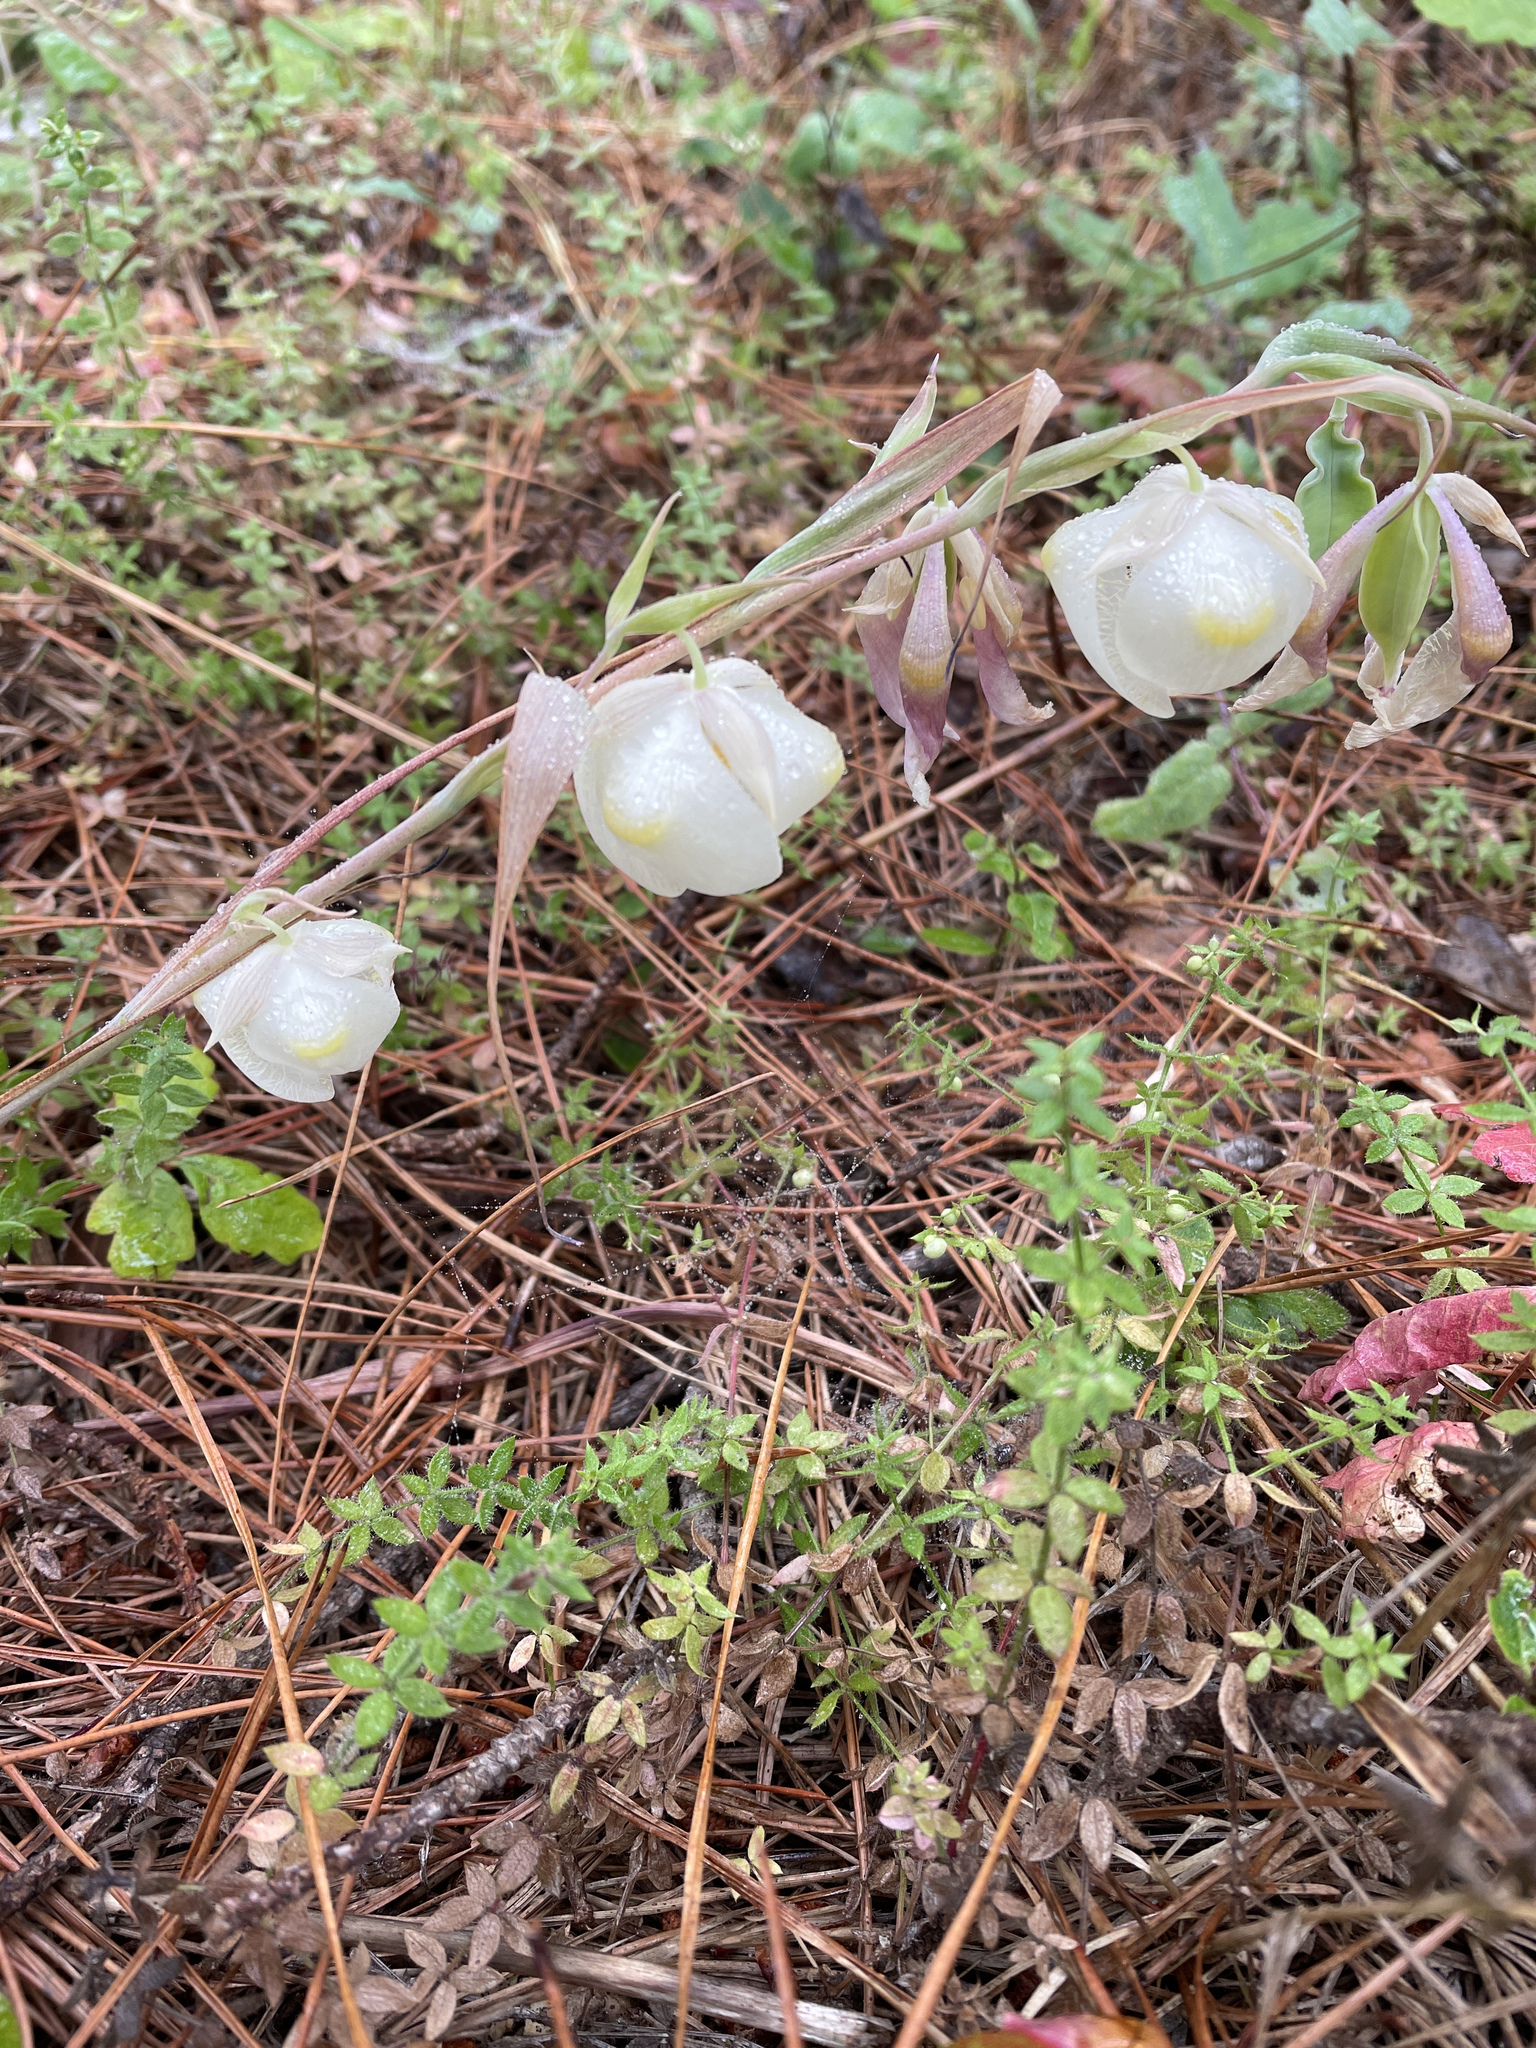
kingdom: Plantae
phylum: Tracheophyta
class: Liliopsida
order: Liliales
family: Liliaceae
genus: Calochortus
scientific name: Calochortus albus
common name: Fairy-lantern
